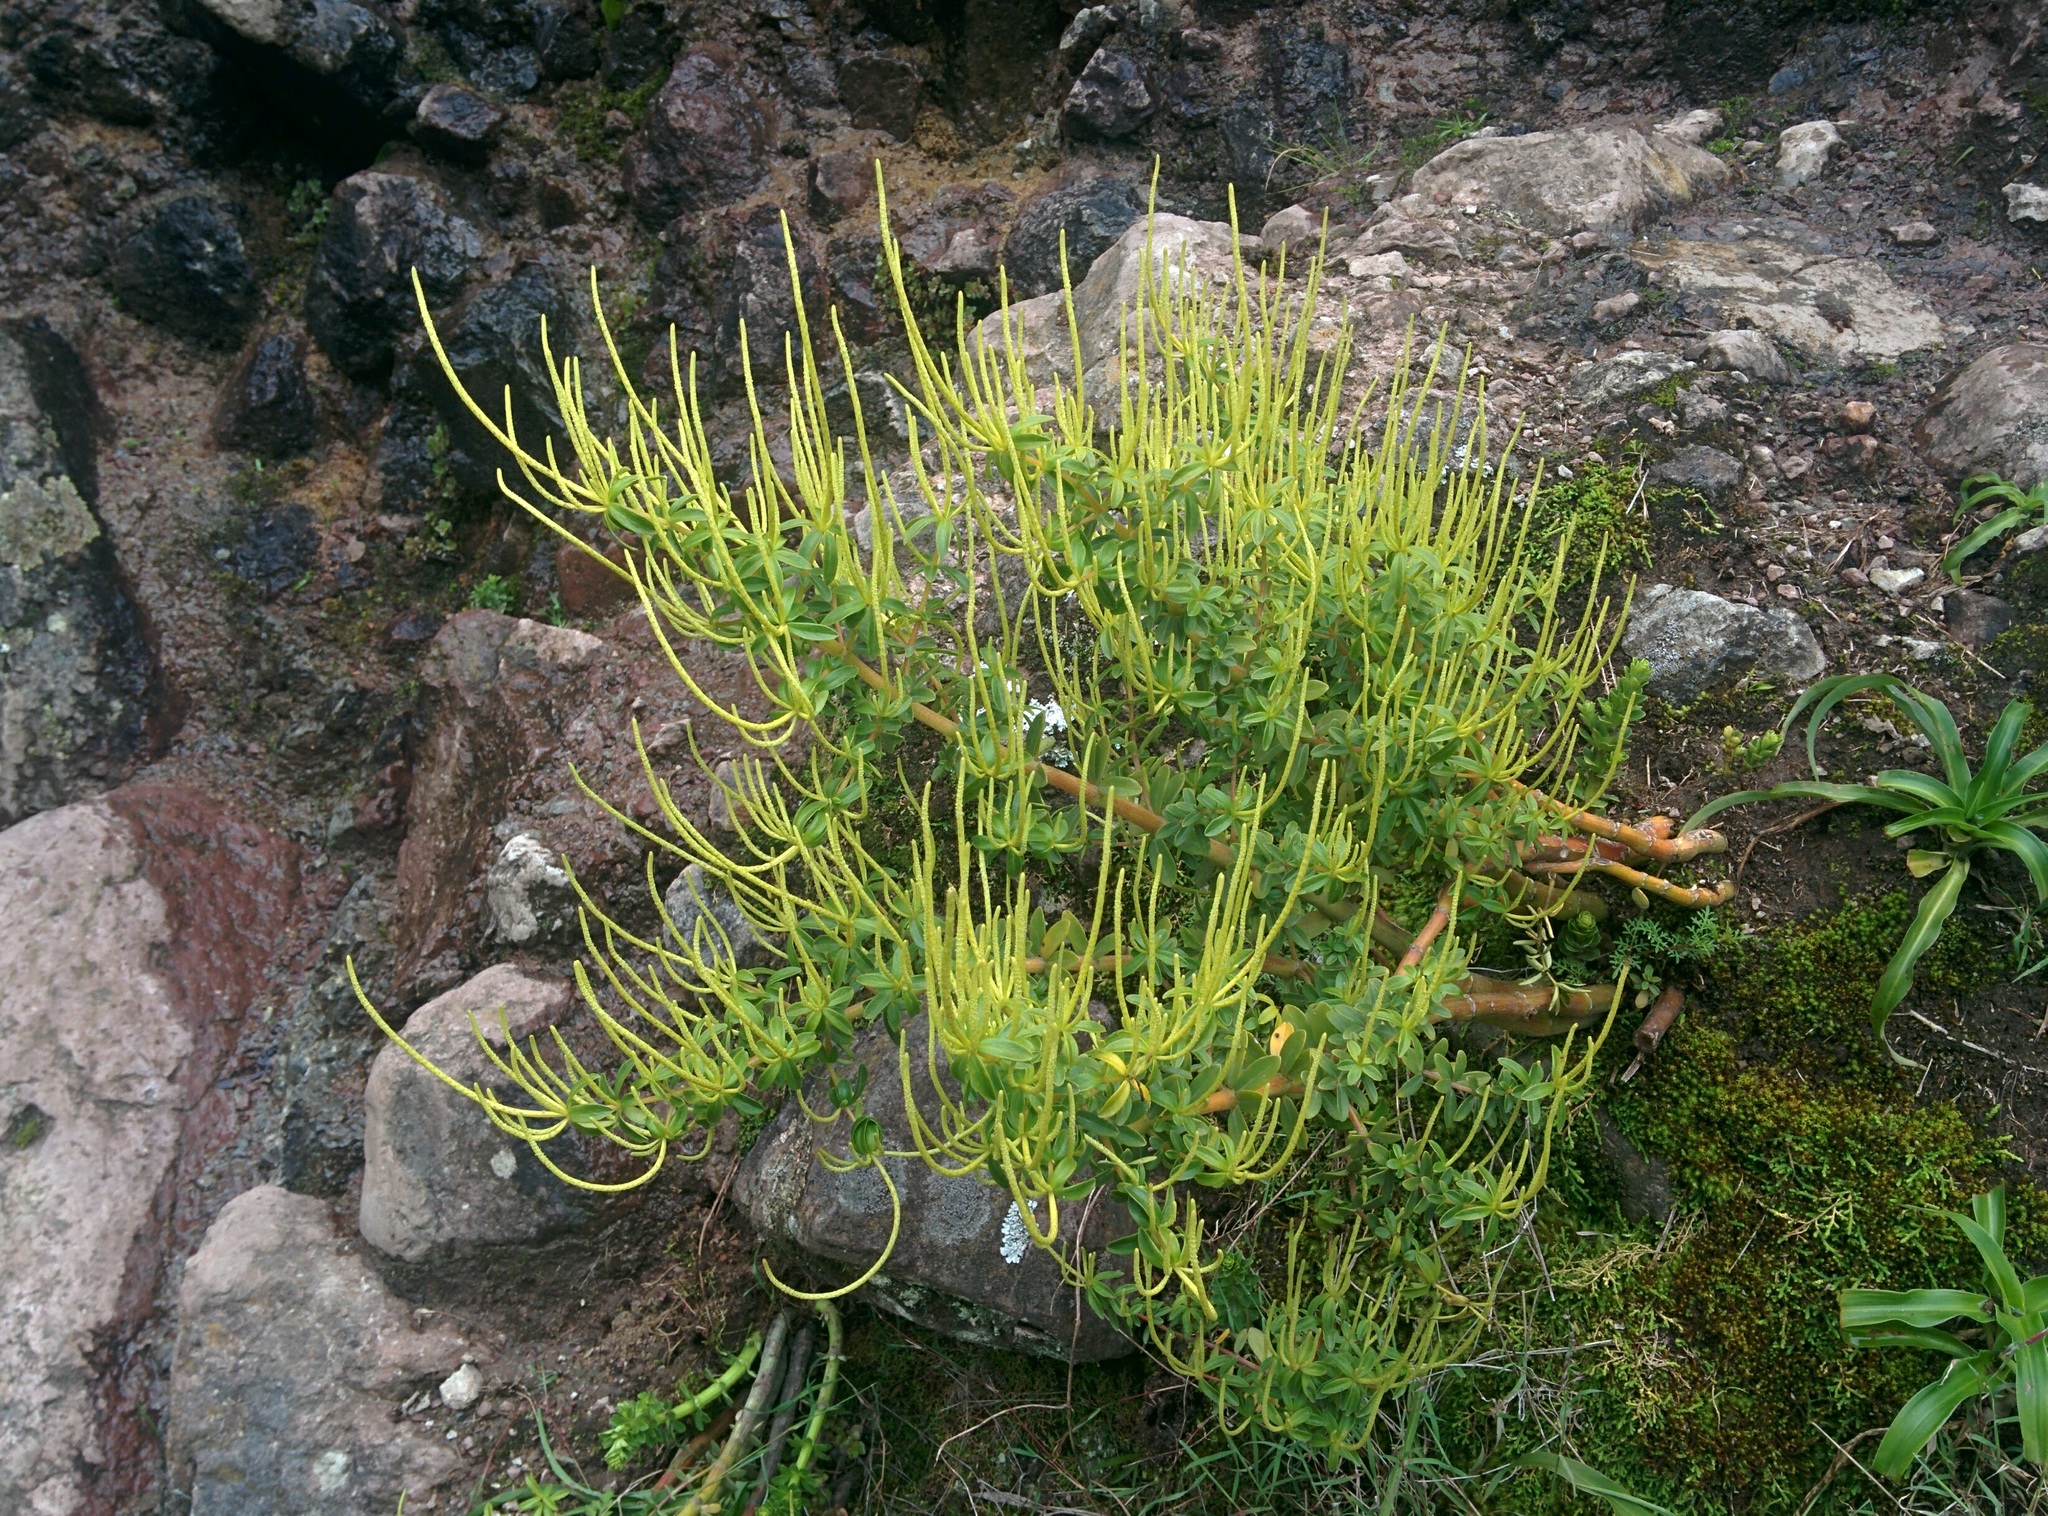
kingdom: Plantae
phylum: Tracheophyta
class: Magnoliopsida
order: Piperales
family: Piperaceae
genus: Peperomia
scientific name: Peperomia galioides
